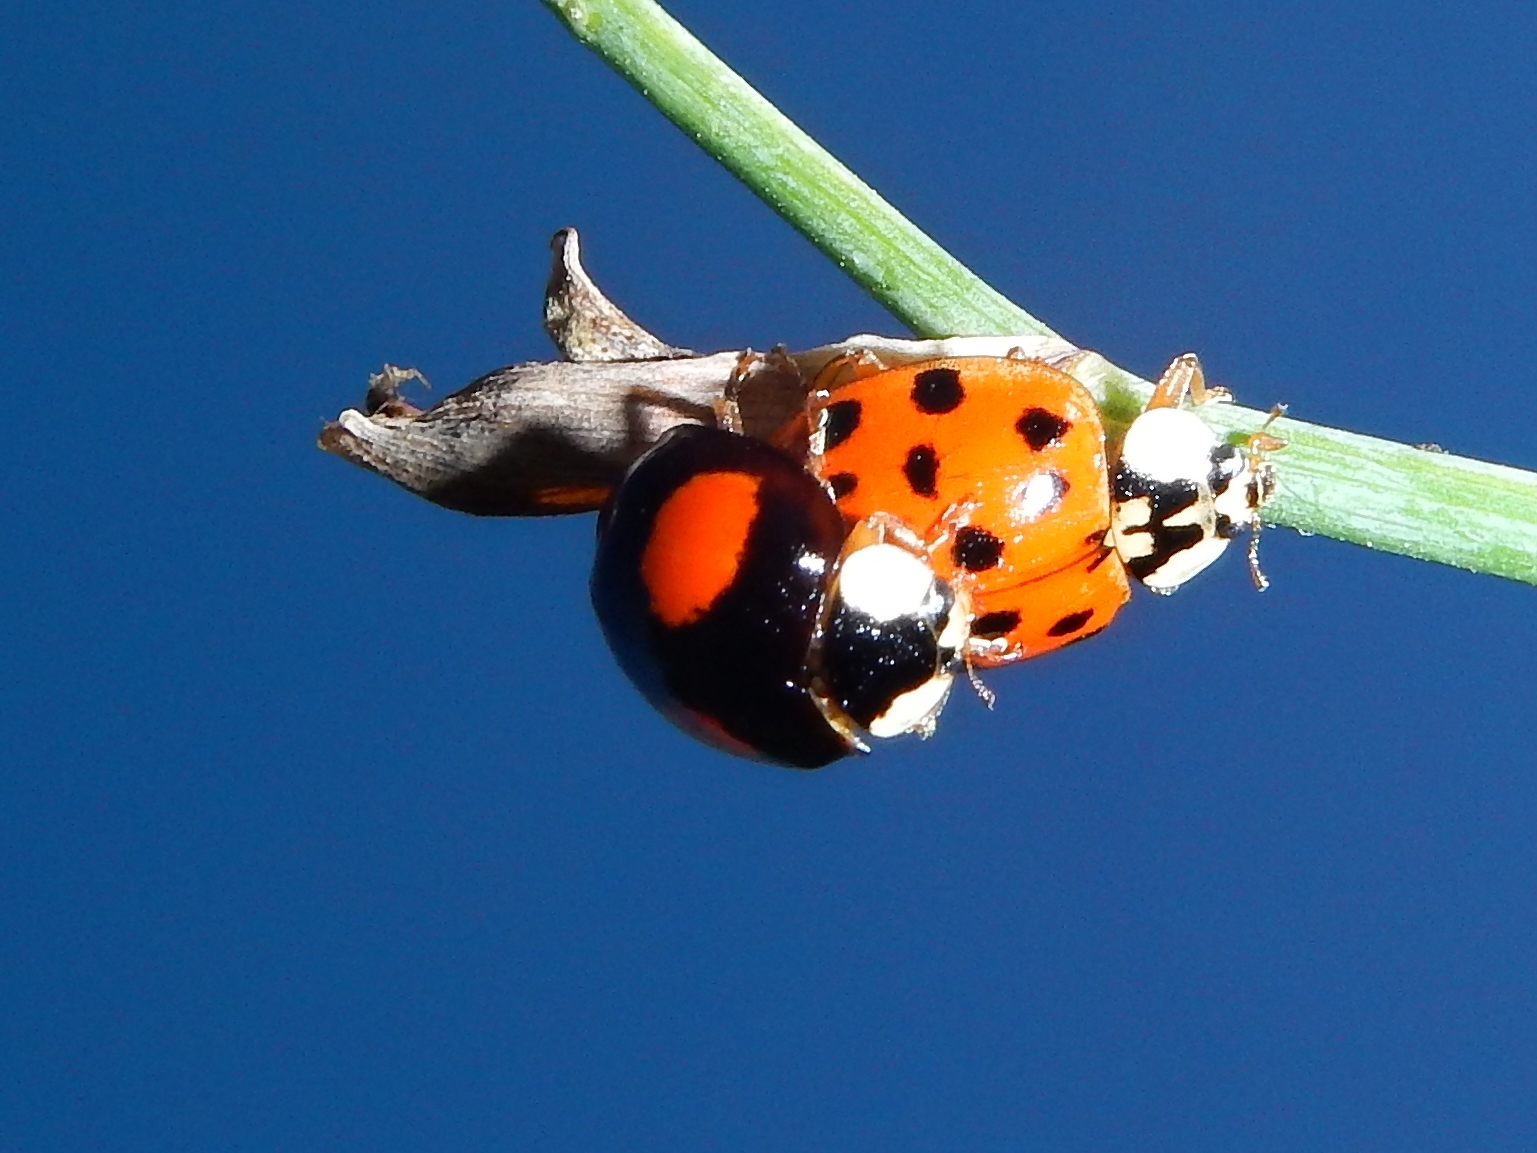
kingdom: Animalia
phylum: Arthropoda
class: Insecta
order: Coleoptera
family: Coccinellidae
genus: Harmonia
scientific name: Harmonia axyridis
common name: Harlequin ladybird
